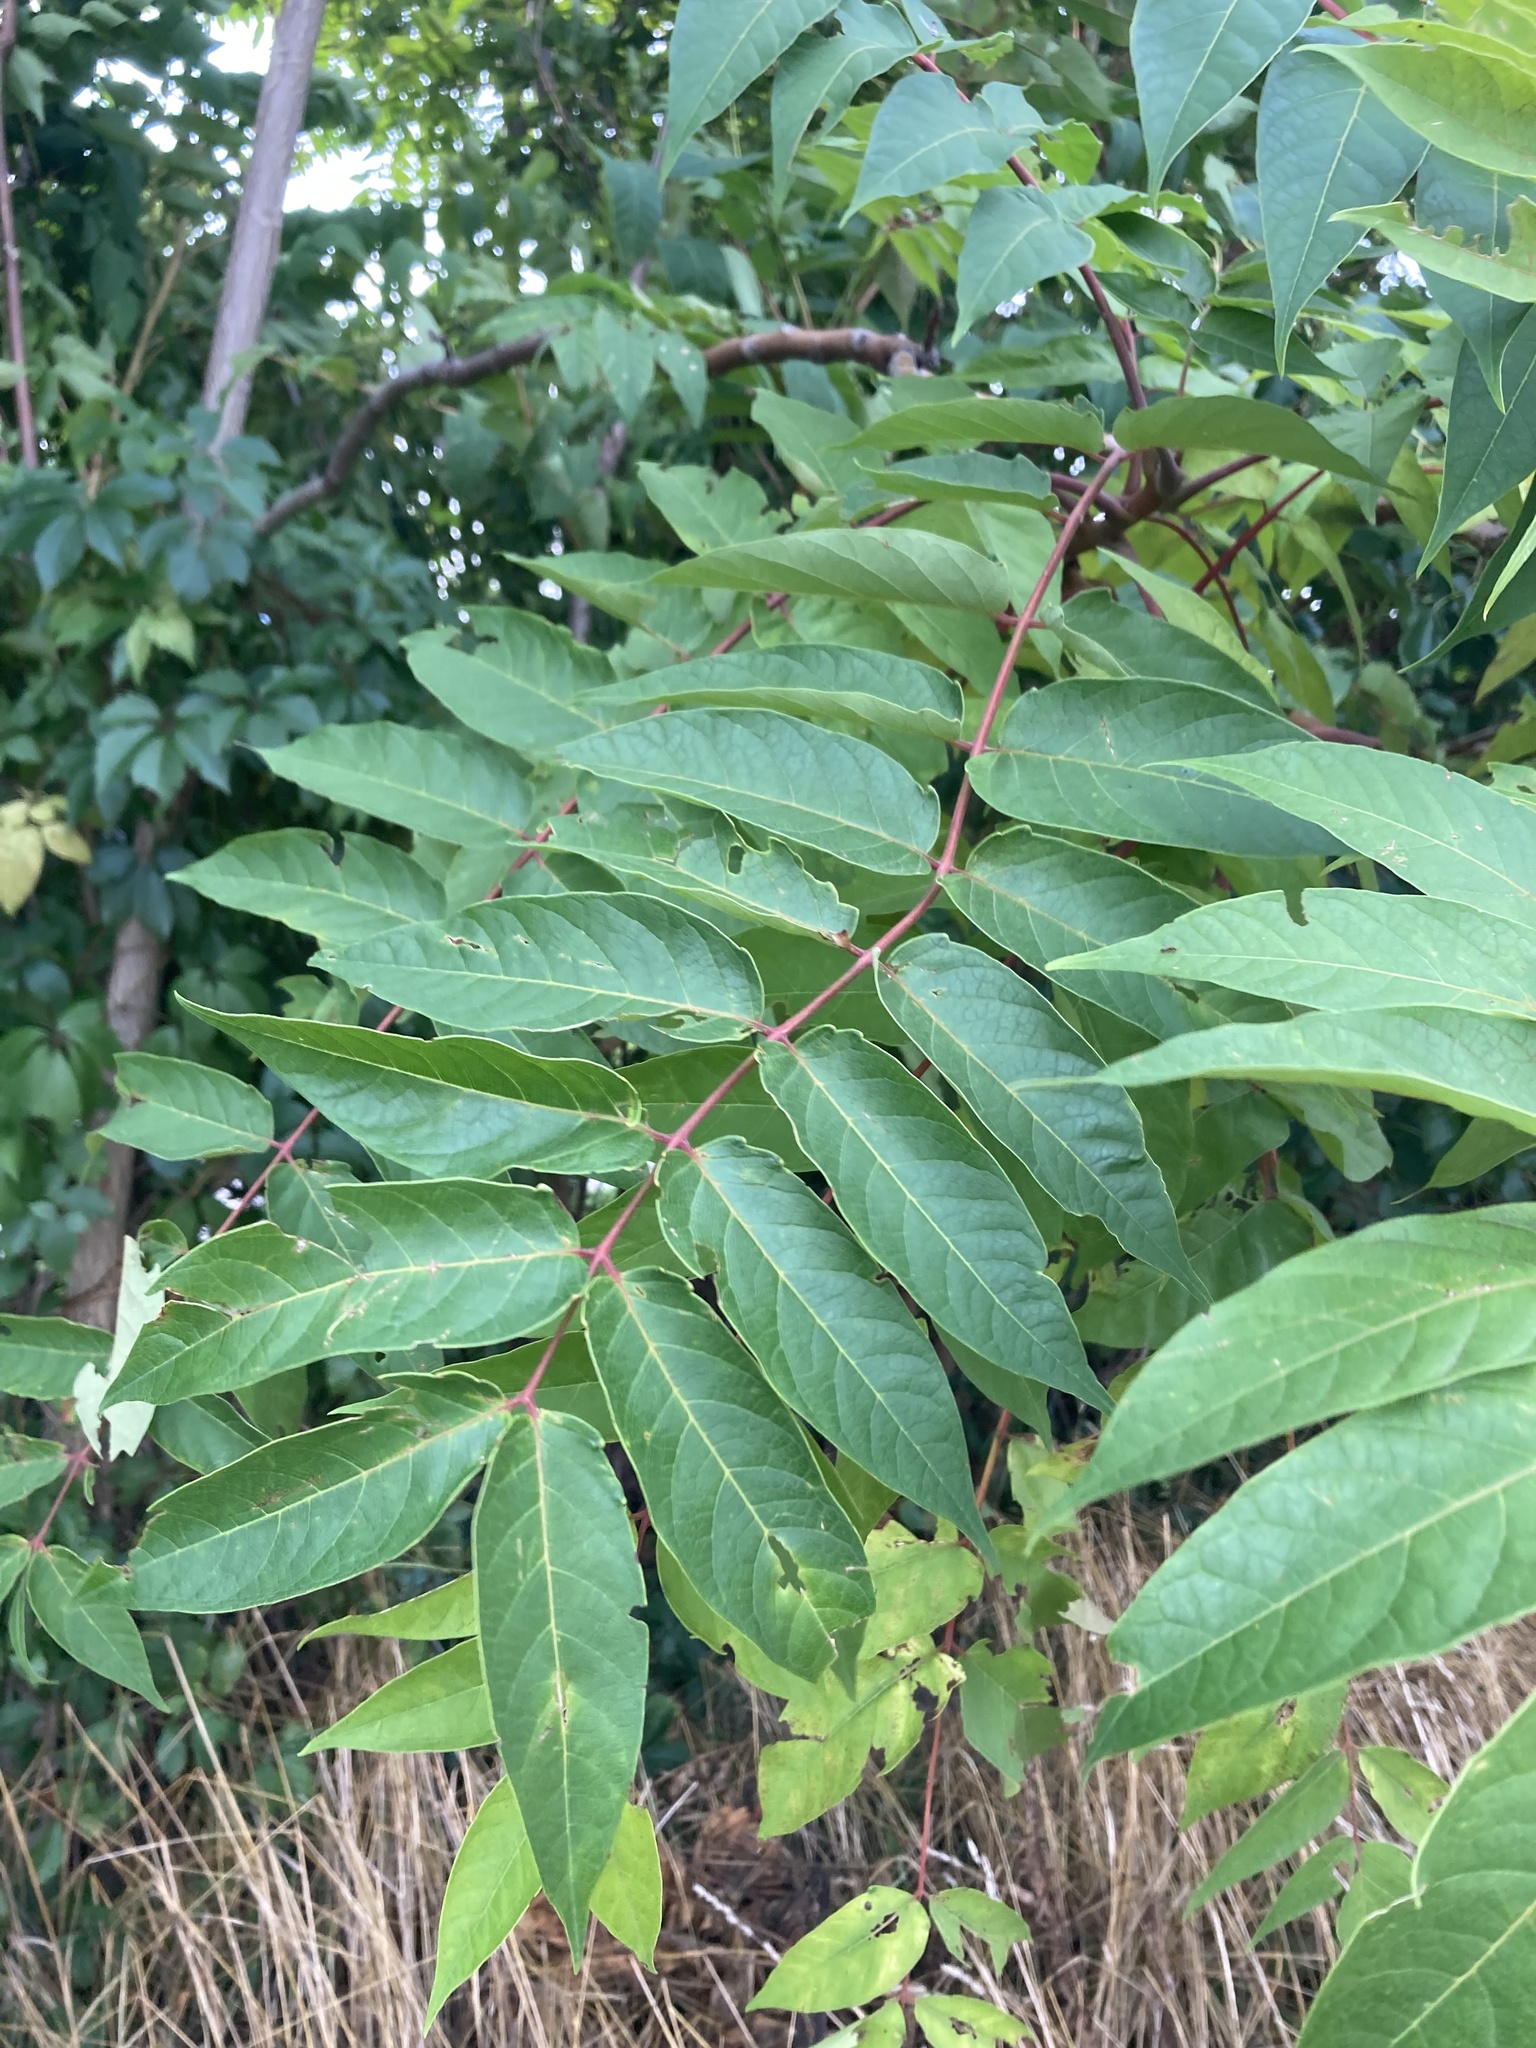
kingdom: Plantae
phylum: Tracheophyta
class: Magnoliopsida
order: Sapindales
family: Simaroubaceae
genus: Ailanthus
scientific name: Ailanthus altissima
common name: Tree-of-heaven
